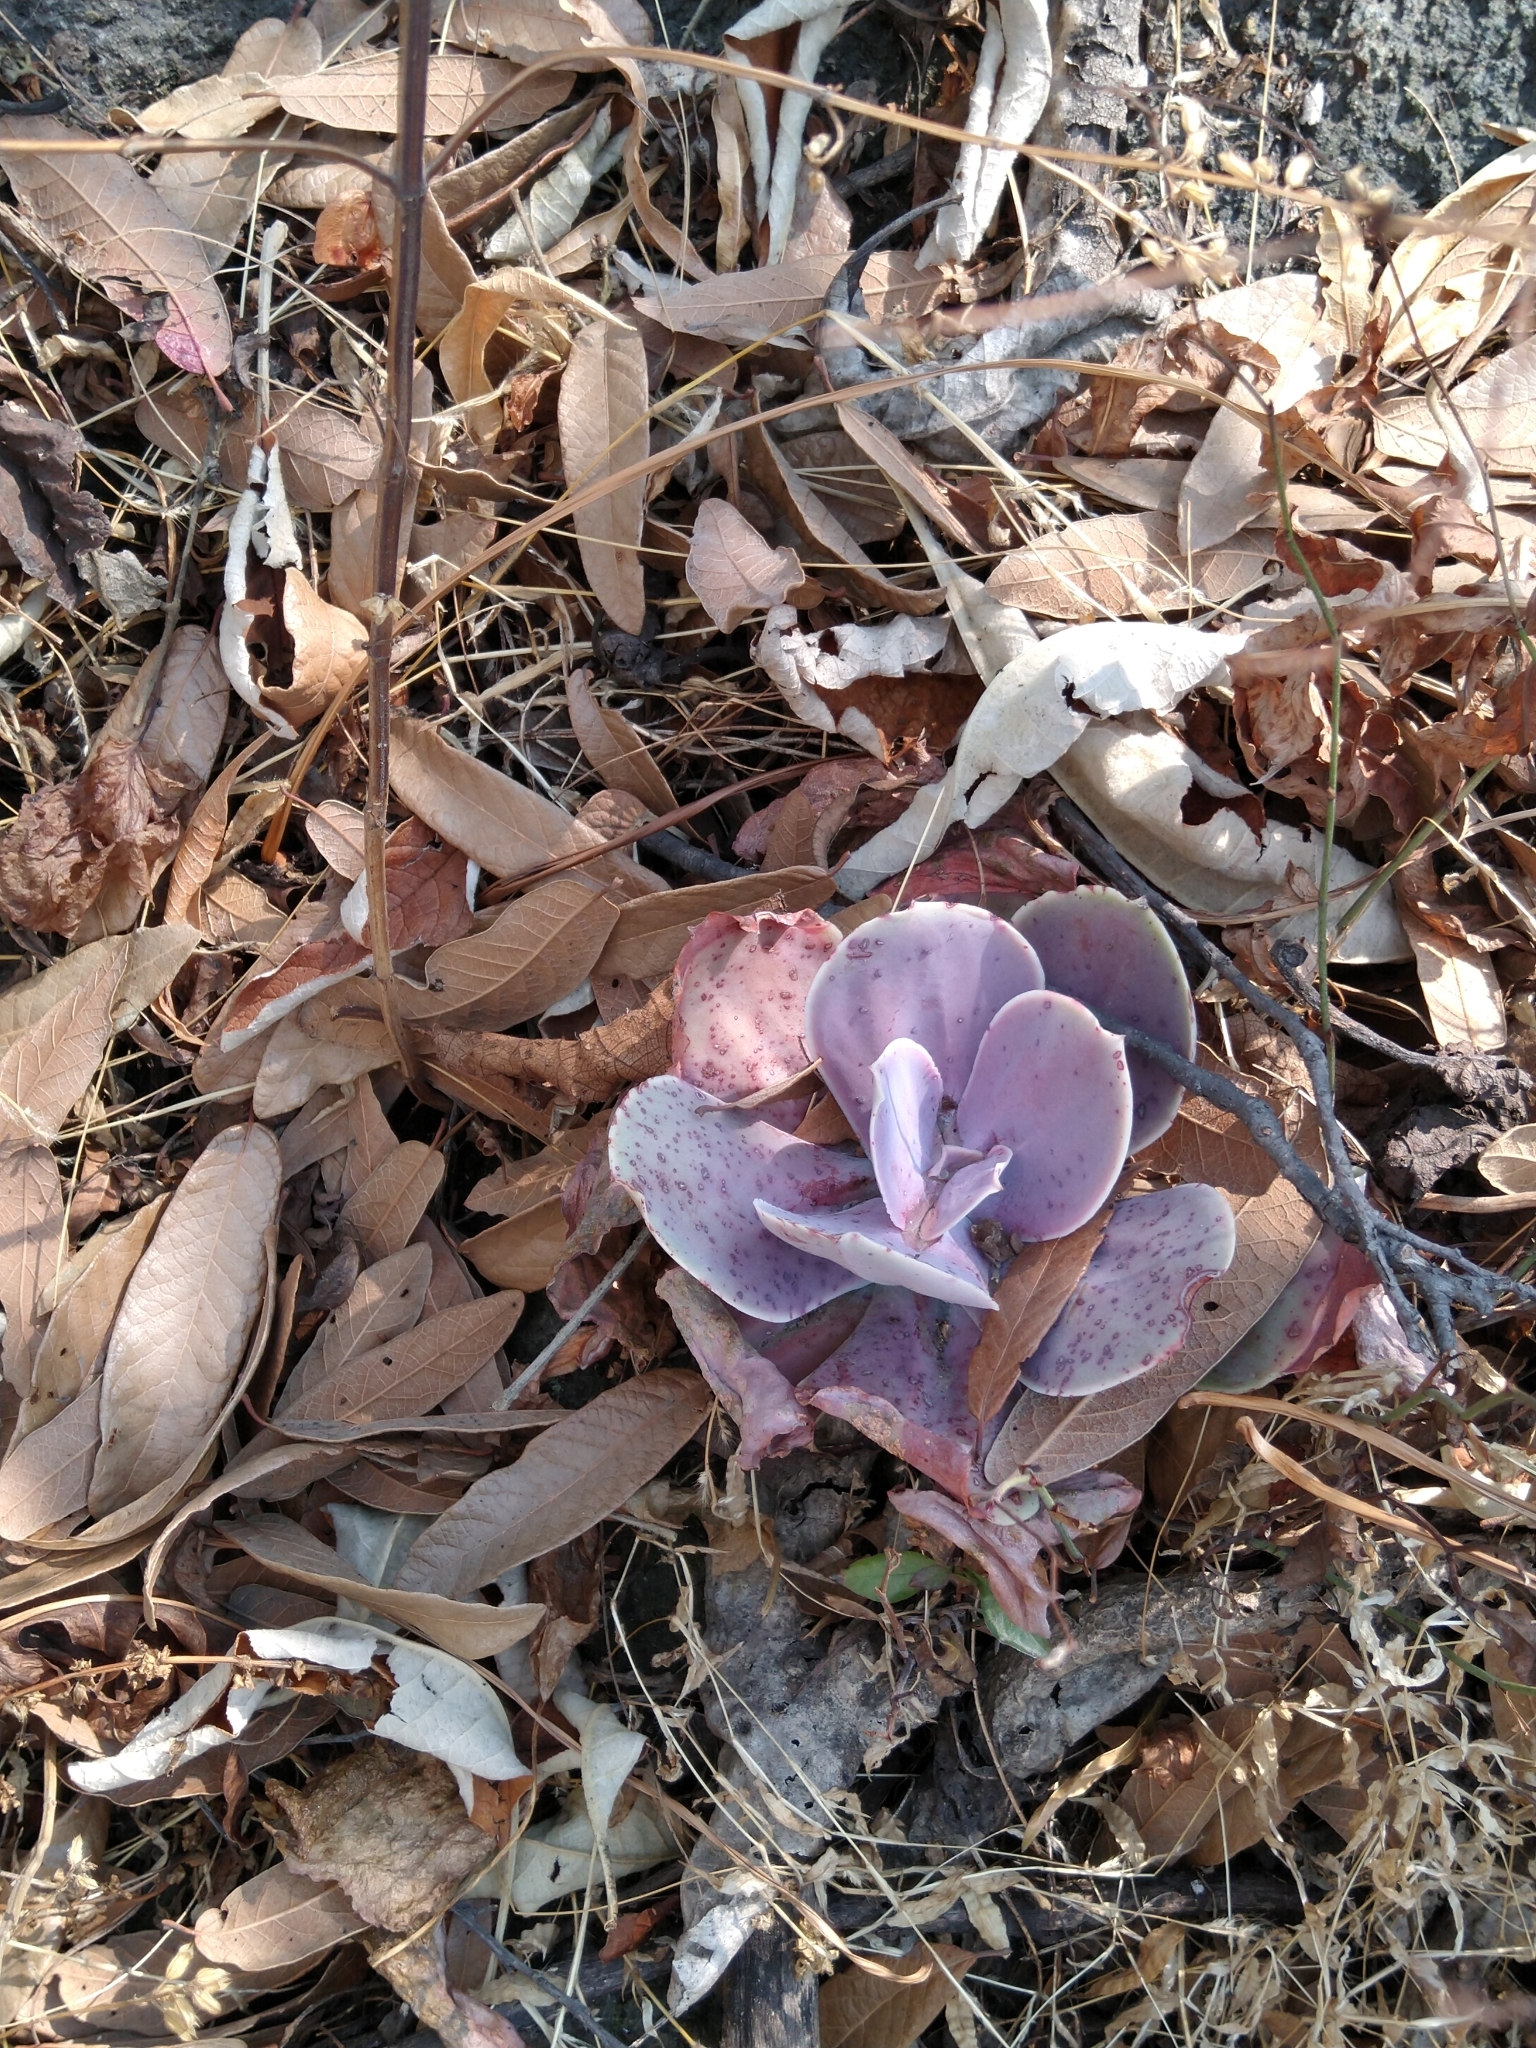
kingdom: Plantae
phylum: Tracheophyta
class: Magnoliopsida
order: Saxifragales
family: Crassulaceae
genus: Echeveria
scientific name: Echeveria gibbiflora
